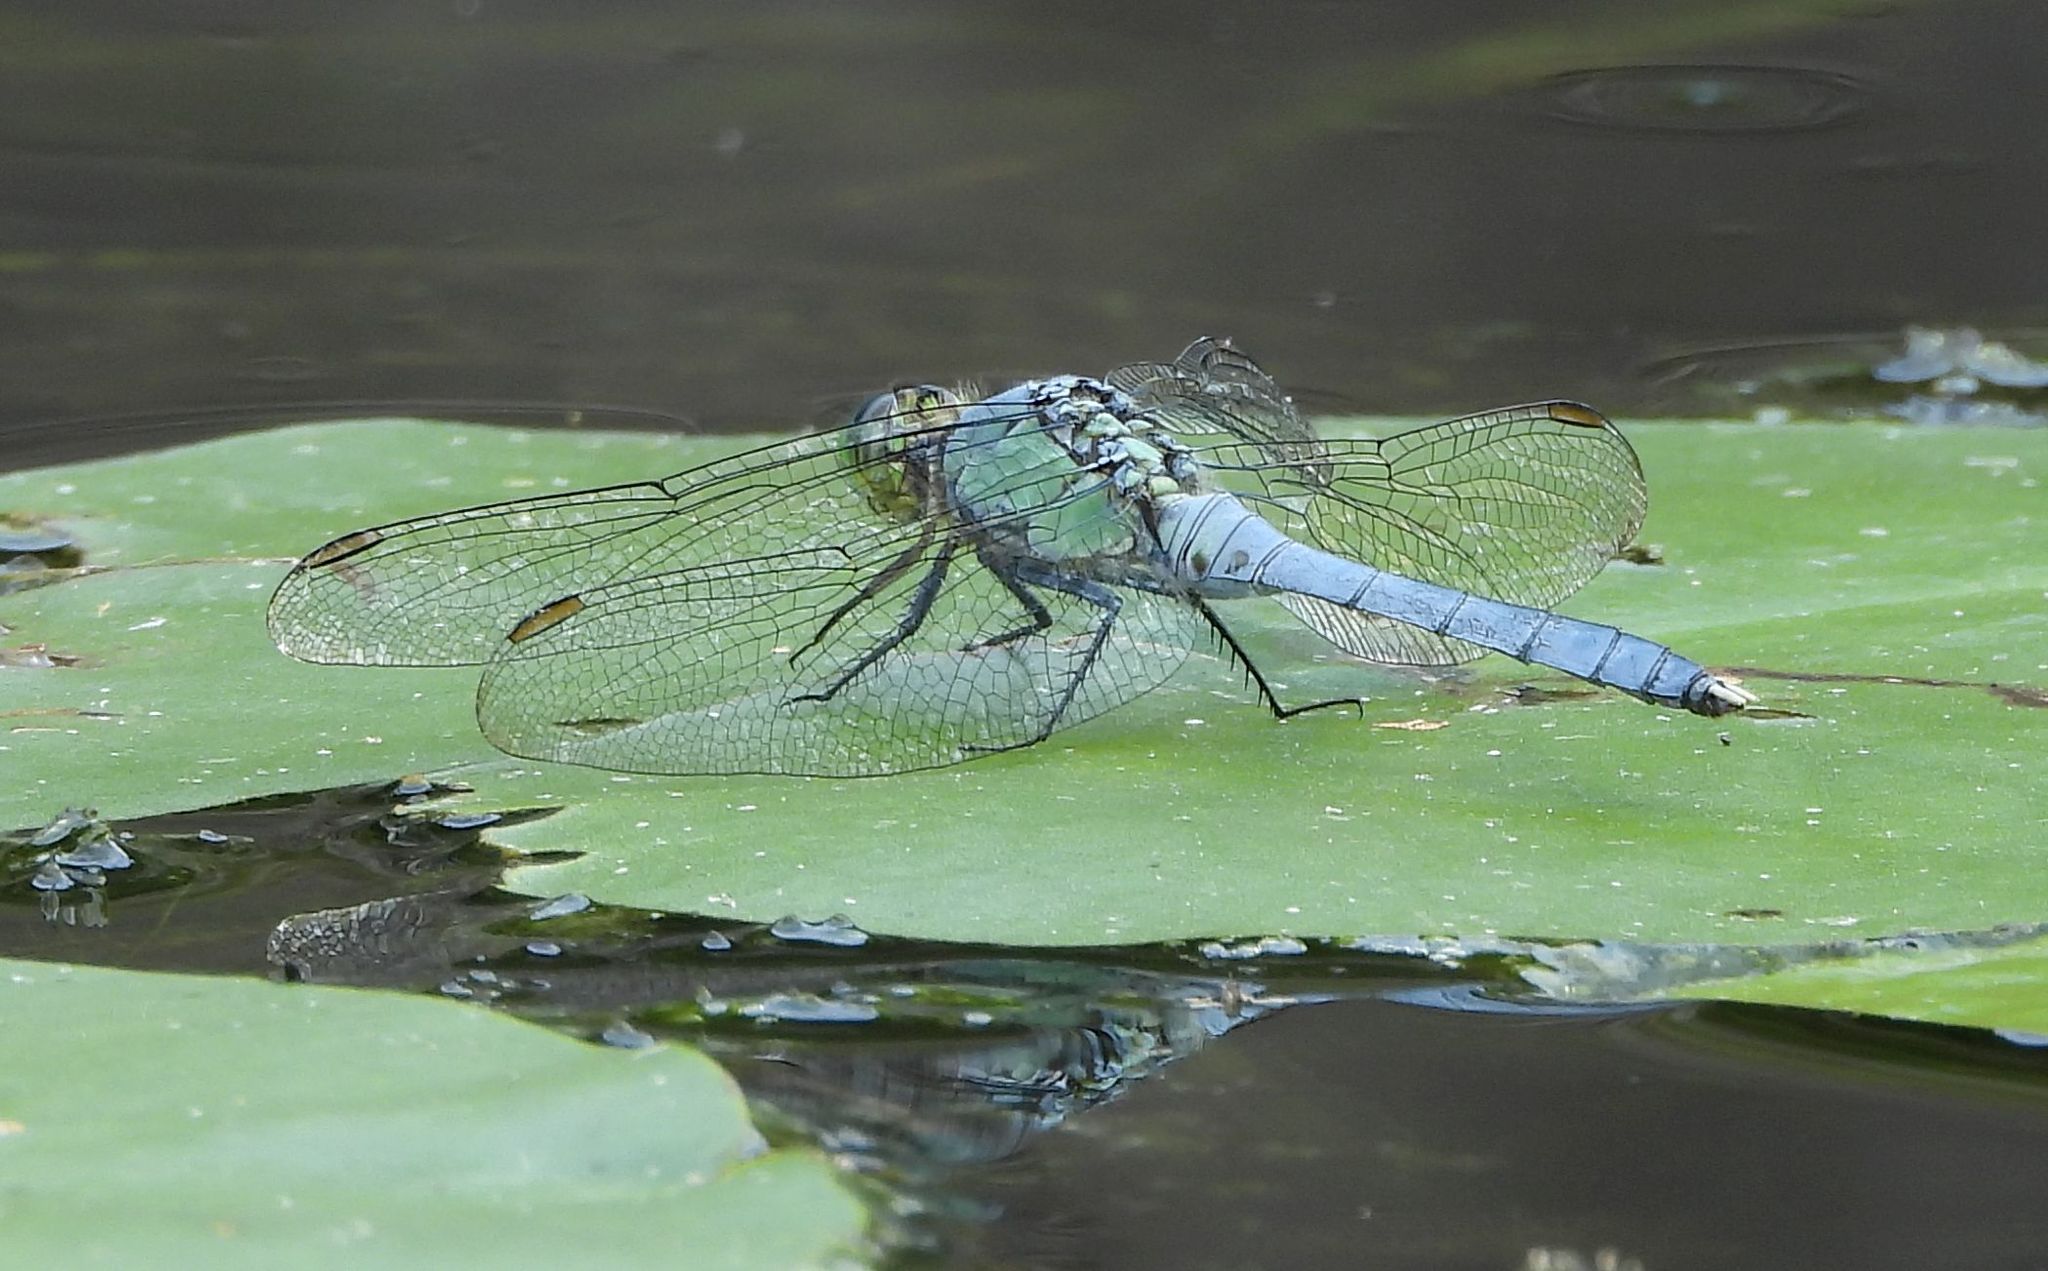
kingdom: Animalia
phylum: Arthropoda
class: Insecta
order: Odonata
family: Libellulidae
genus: Erythemis
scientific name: Erythemis simplicicollis
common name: Eastern pondhawk
